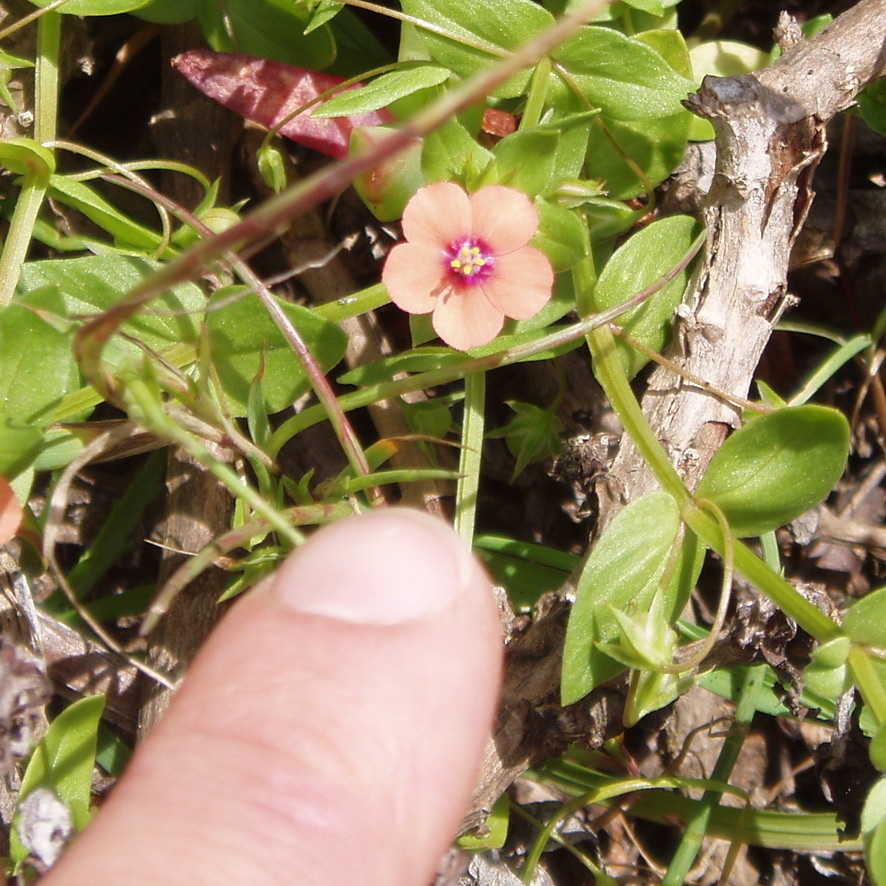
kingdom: Plantae
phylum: Tracheophyta
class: Magnoliopsida
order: Ericales
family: Primulaceae
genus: Lysimachia
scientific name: Lysimachia arvensis
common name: Scarlet pimpernel
